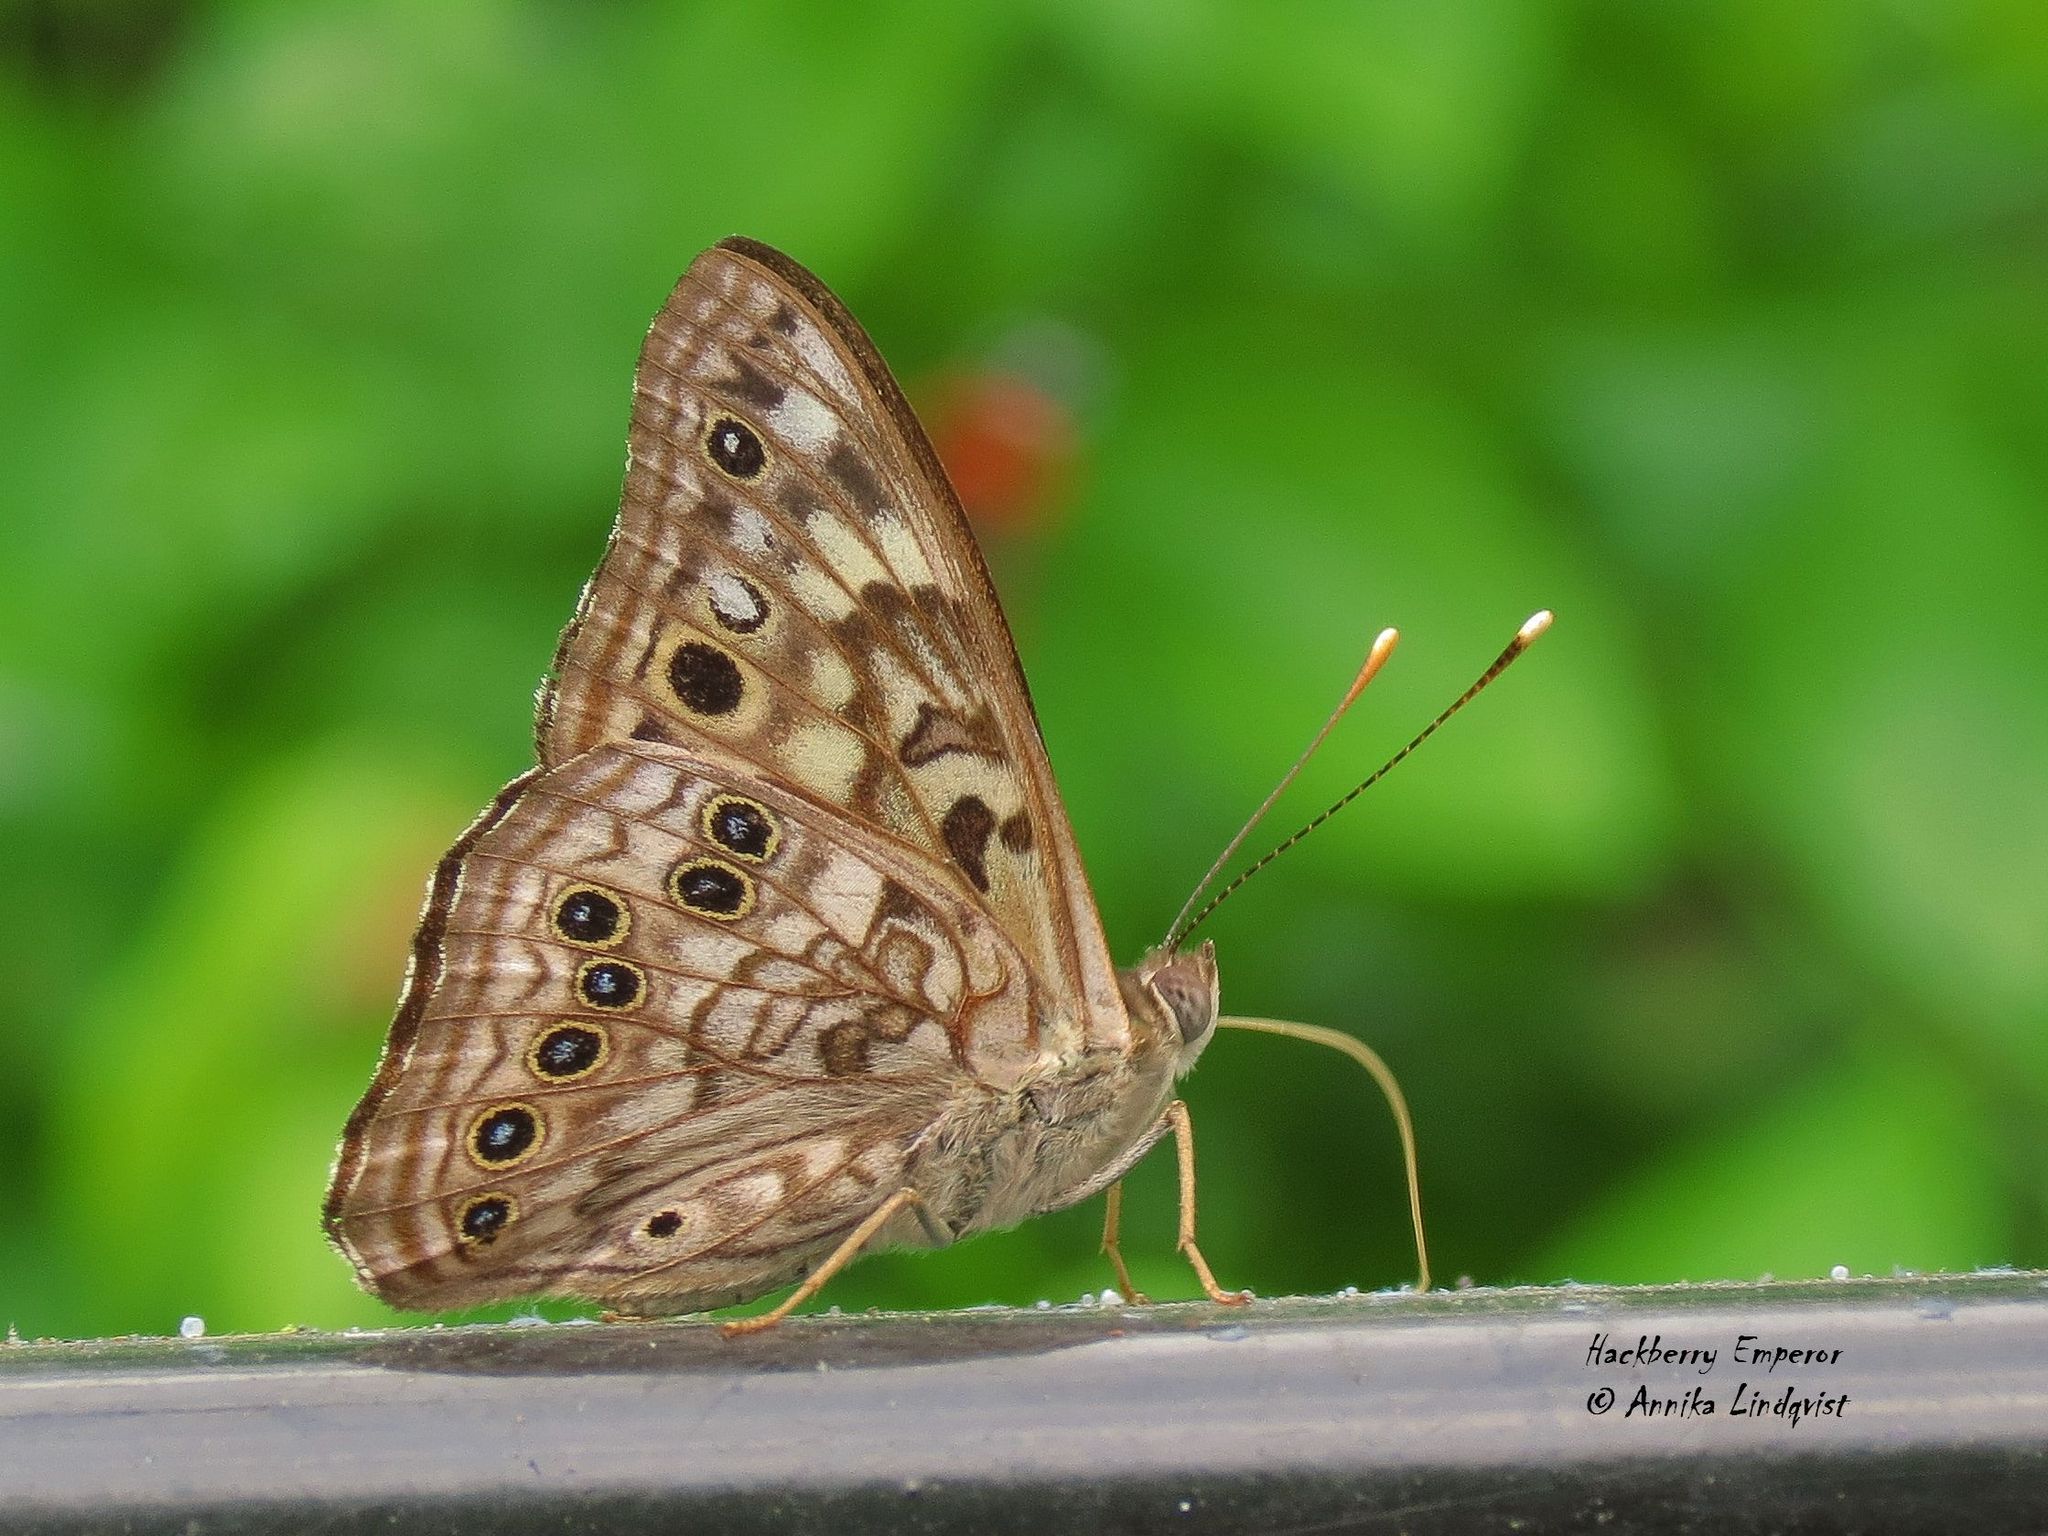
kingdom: Animalia
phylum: Arthropoda
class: Insecta
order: Lepidoptera
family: Nymphalidae
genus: Asterocampa
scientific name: Asterocampa celtis
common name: Hackberry emperor
